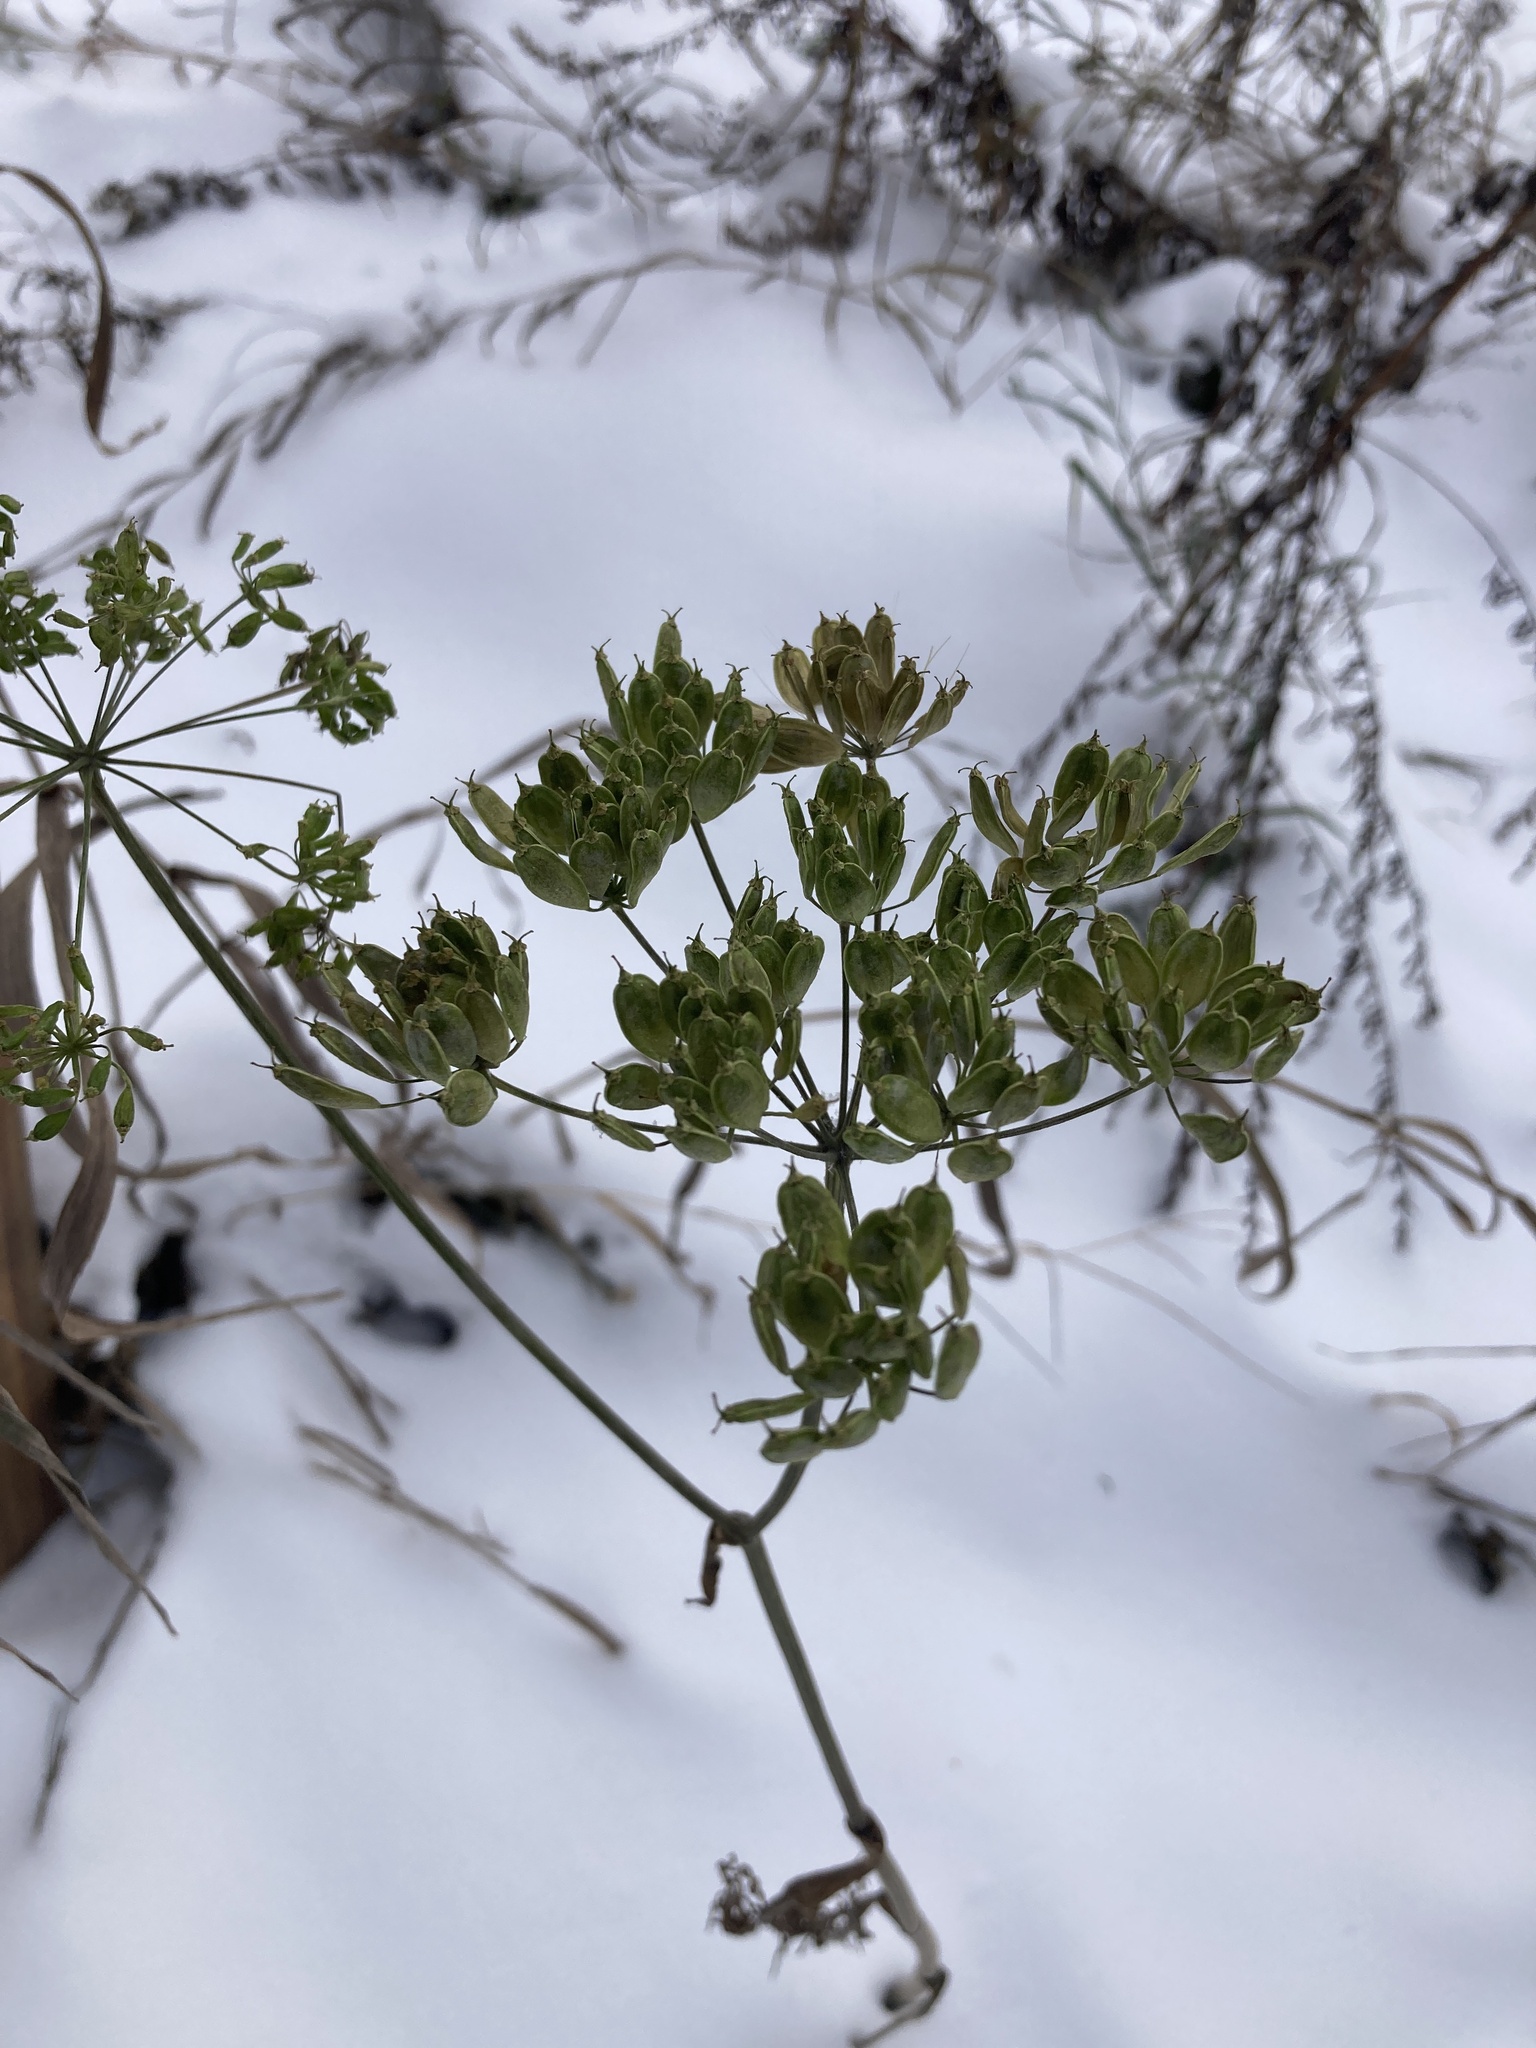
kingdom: Plantae
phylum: Tracheophyta
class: Magnoliopsida
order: Apiales
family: Apiaceae
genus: Heracleum
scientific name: Heracleum sphondylium
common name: Hogweed
